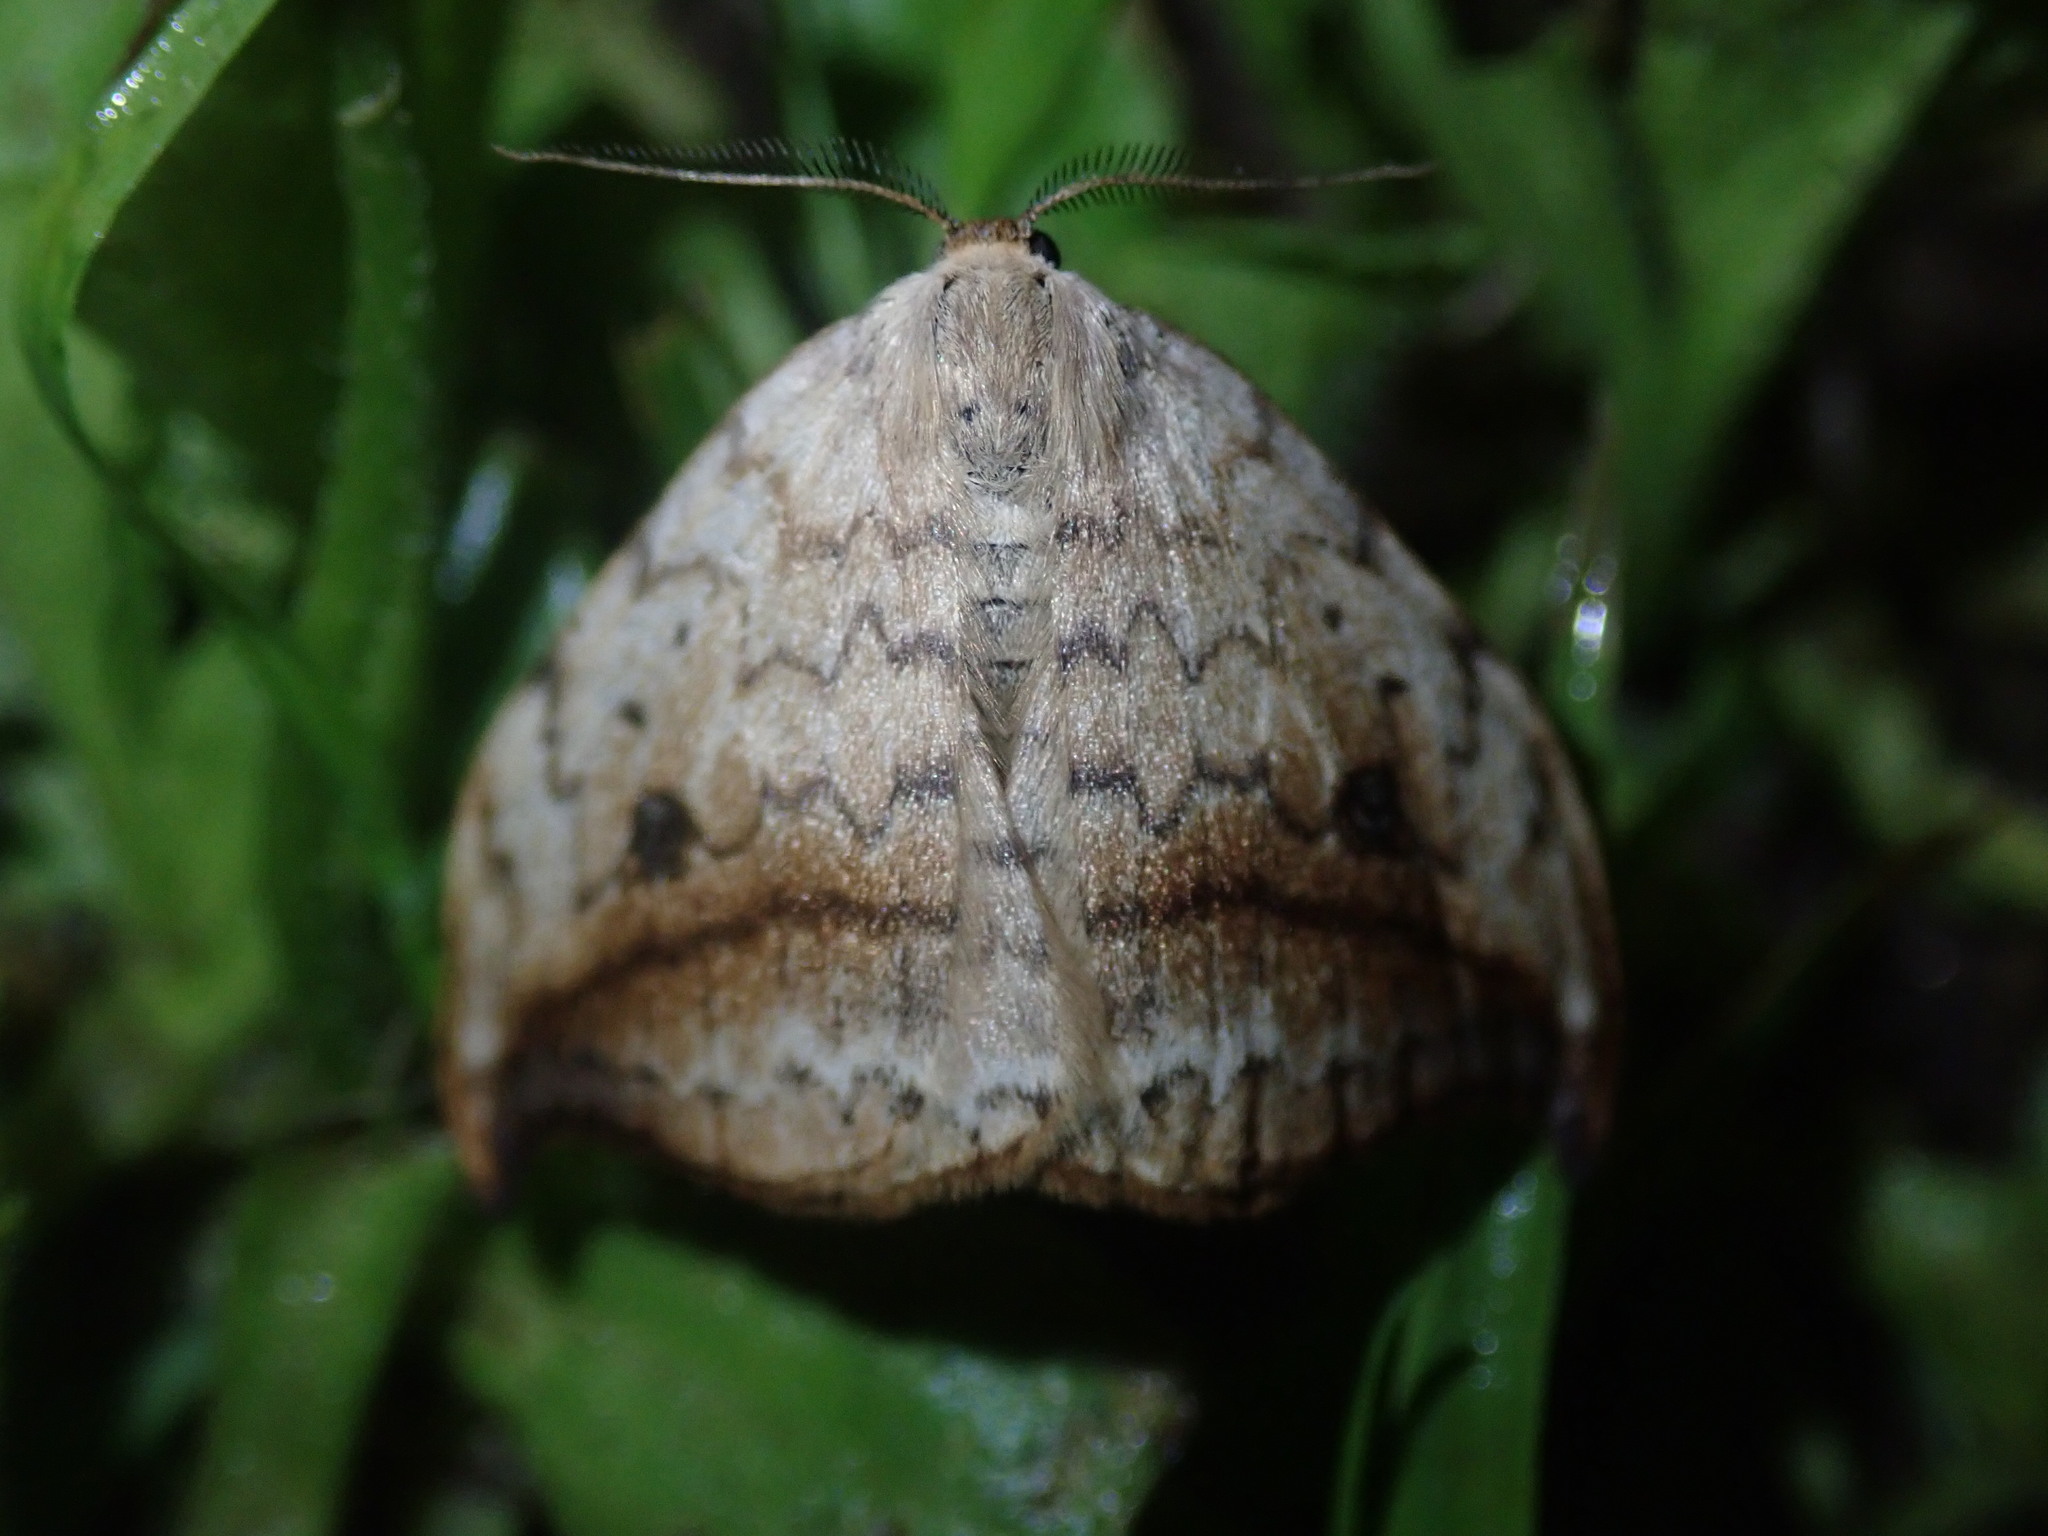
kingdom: Animalia
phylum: Arthropoda
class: Insecta
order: Lepidoptera
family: Drepanidae
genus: Drepana
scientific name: Drepana falcataria
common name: Pebble hook-tip
